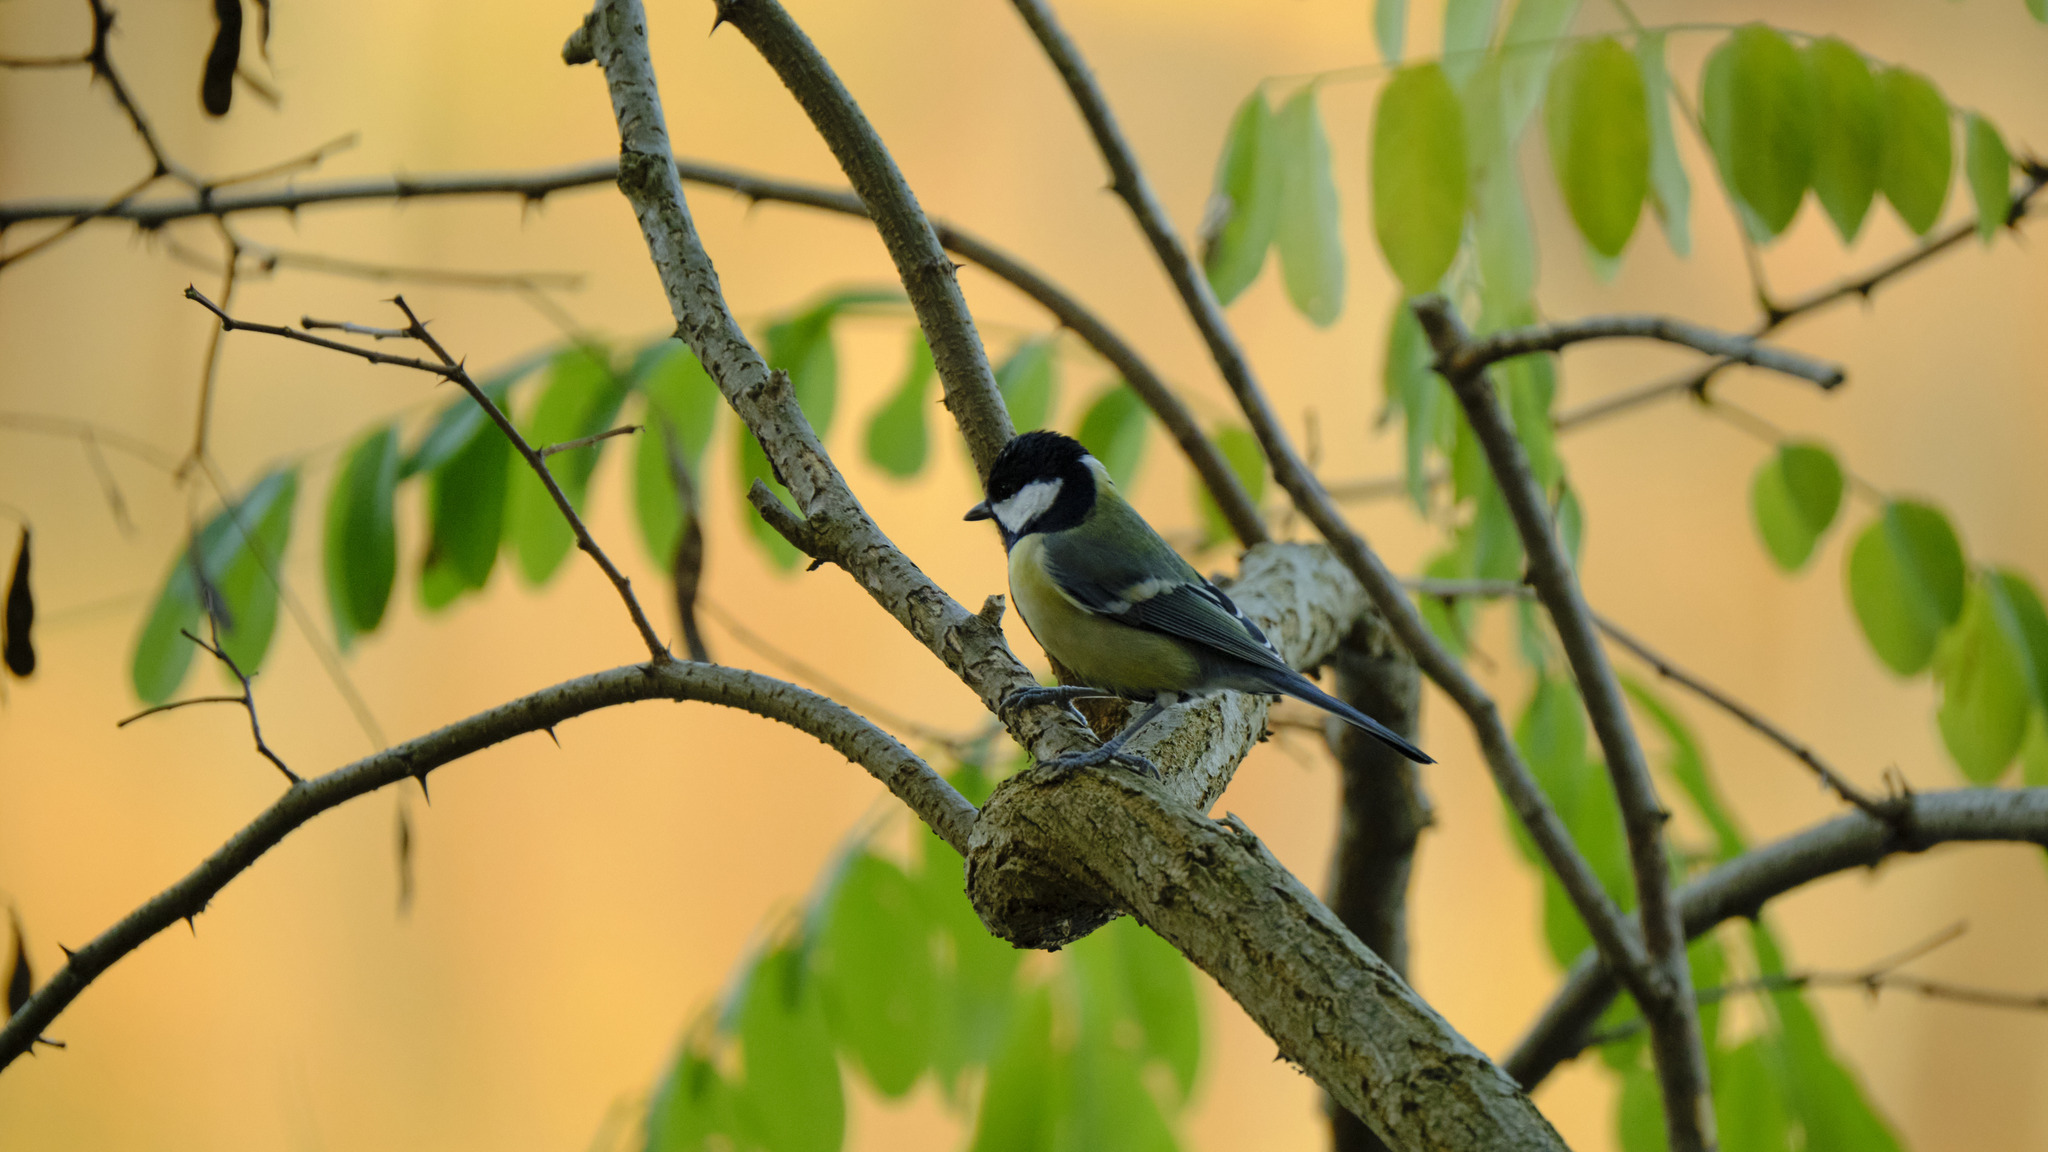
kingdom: Animalia
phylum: Chordata
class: Aves
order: Passeriformes
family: Paridae
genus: Parus
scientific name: Parus major
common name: Great tit
